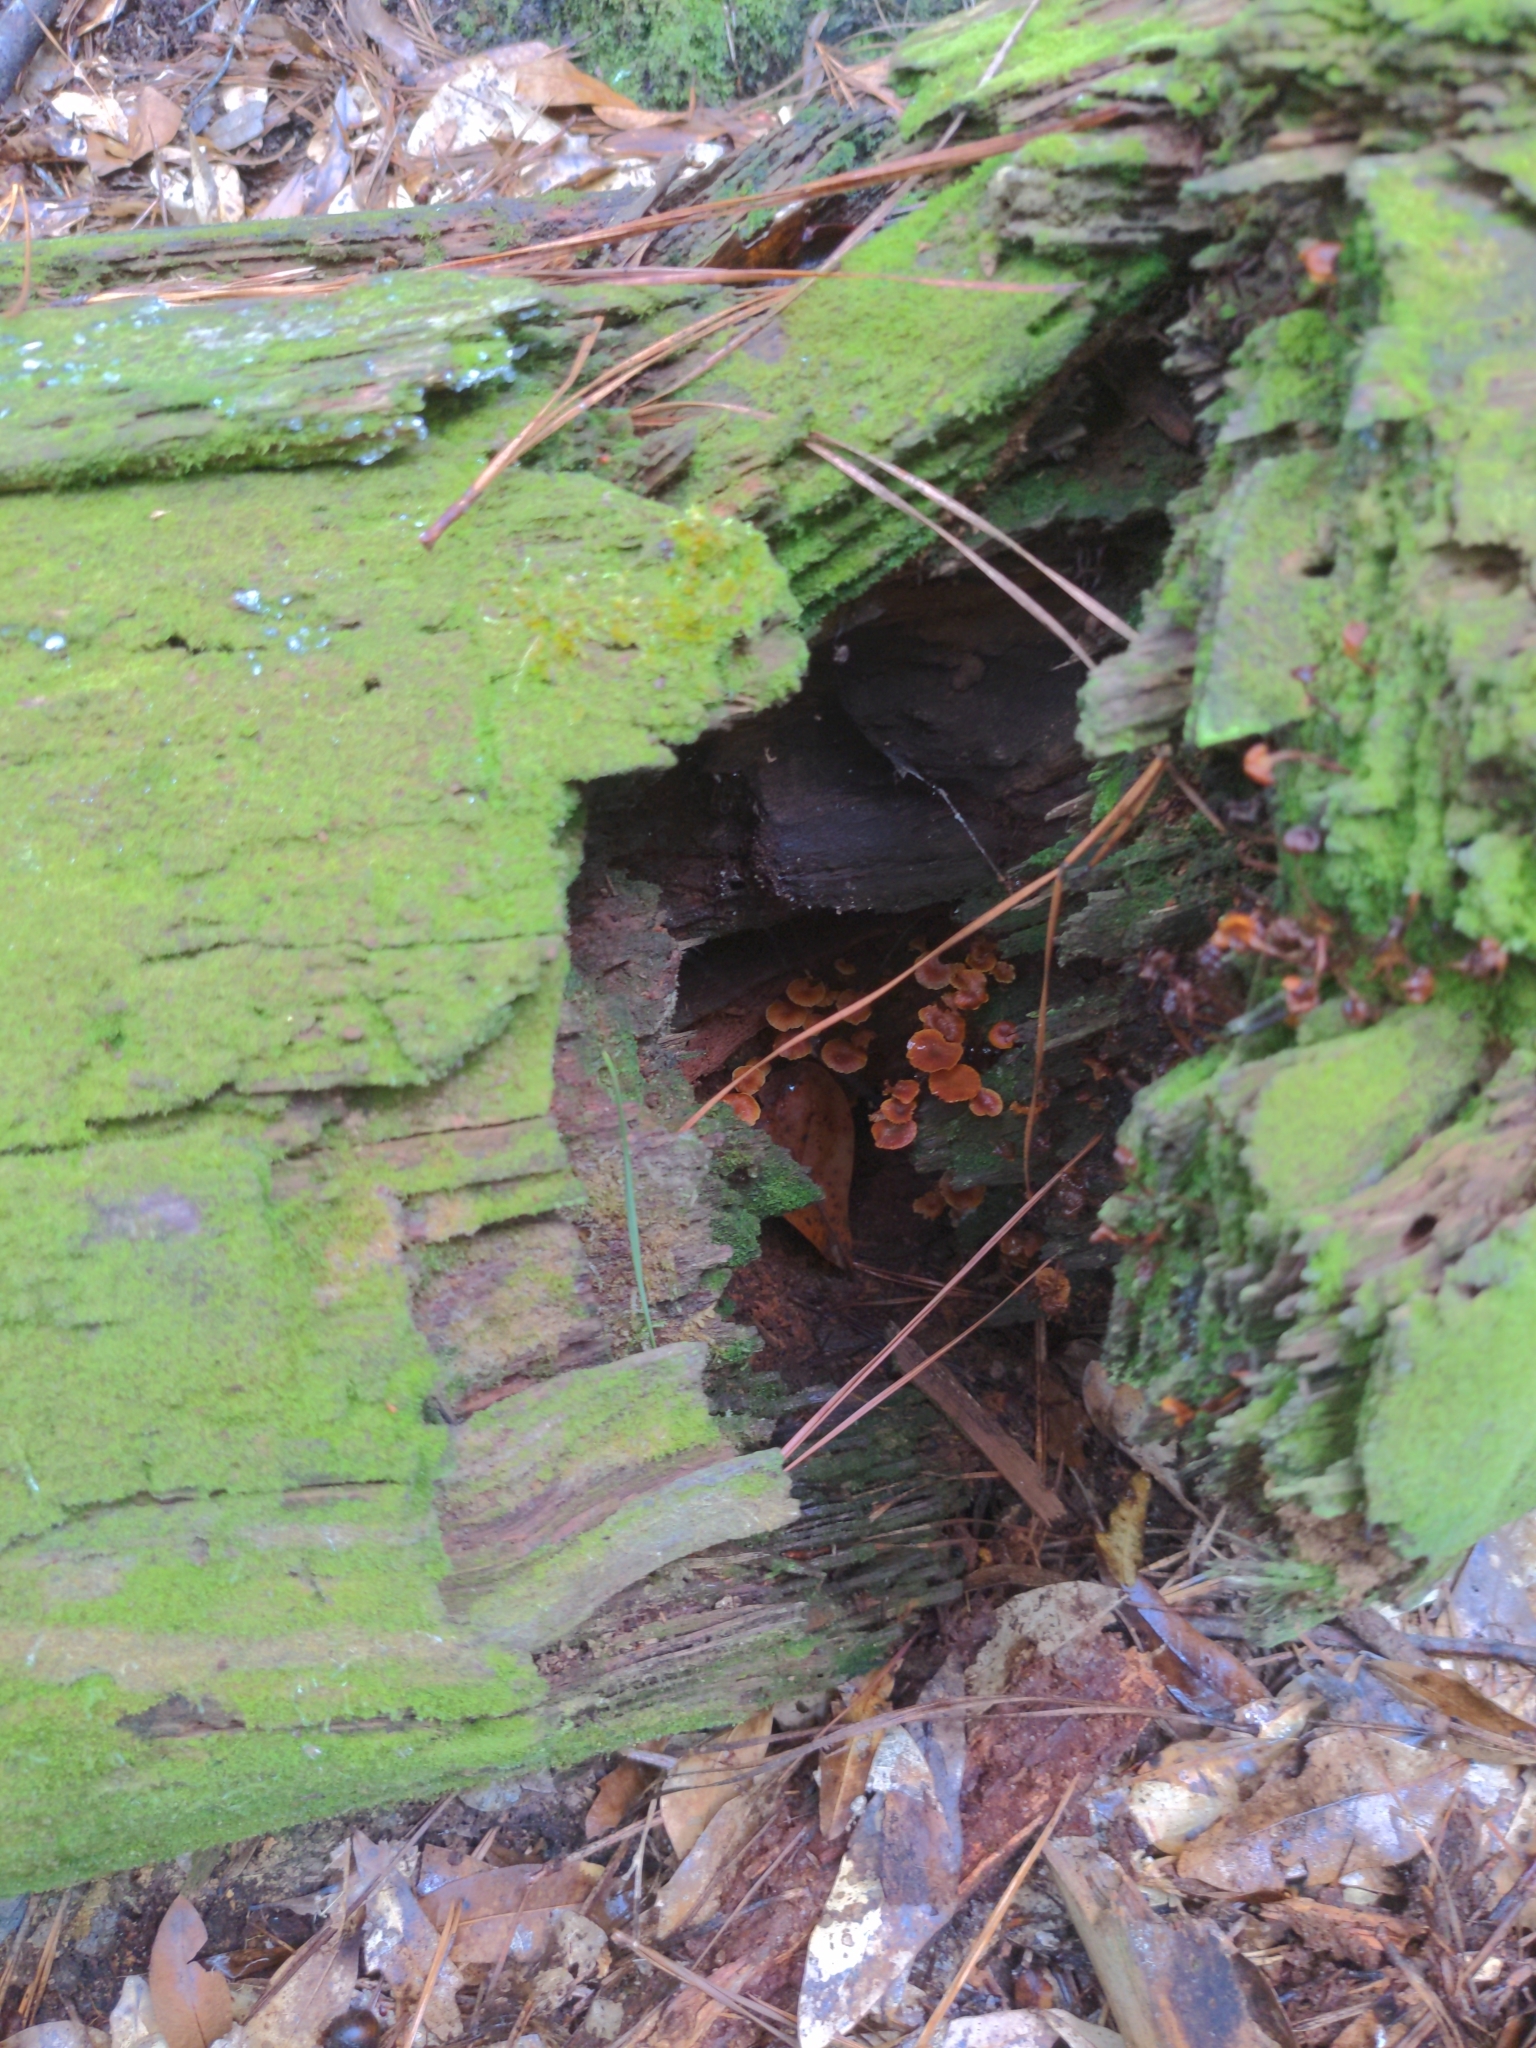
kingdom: Fungi
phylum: Basidiomycota
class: Agaricomycetes
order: Agaricales
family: Mycenaceae
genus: Xeromphalina
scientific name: Xeromphalina campanella
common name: Pinewood gingertail
